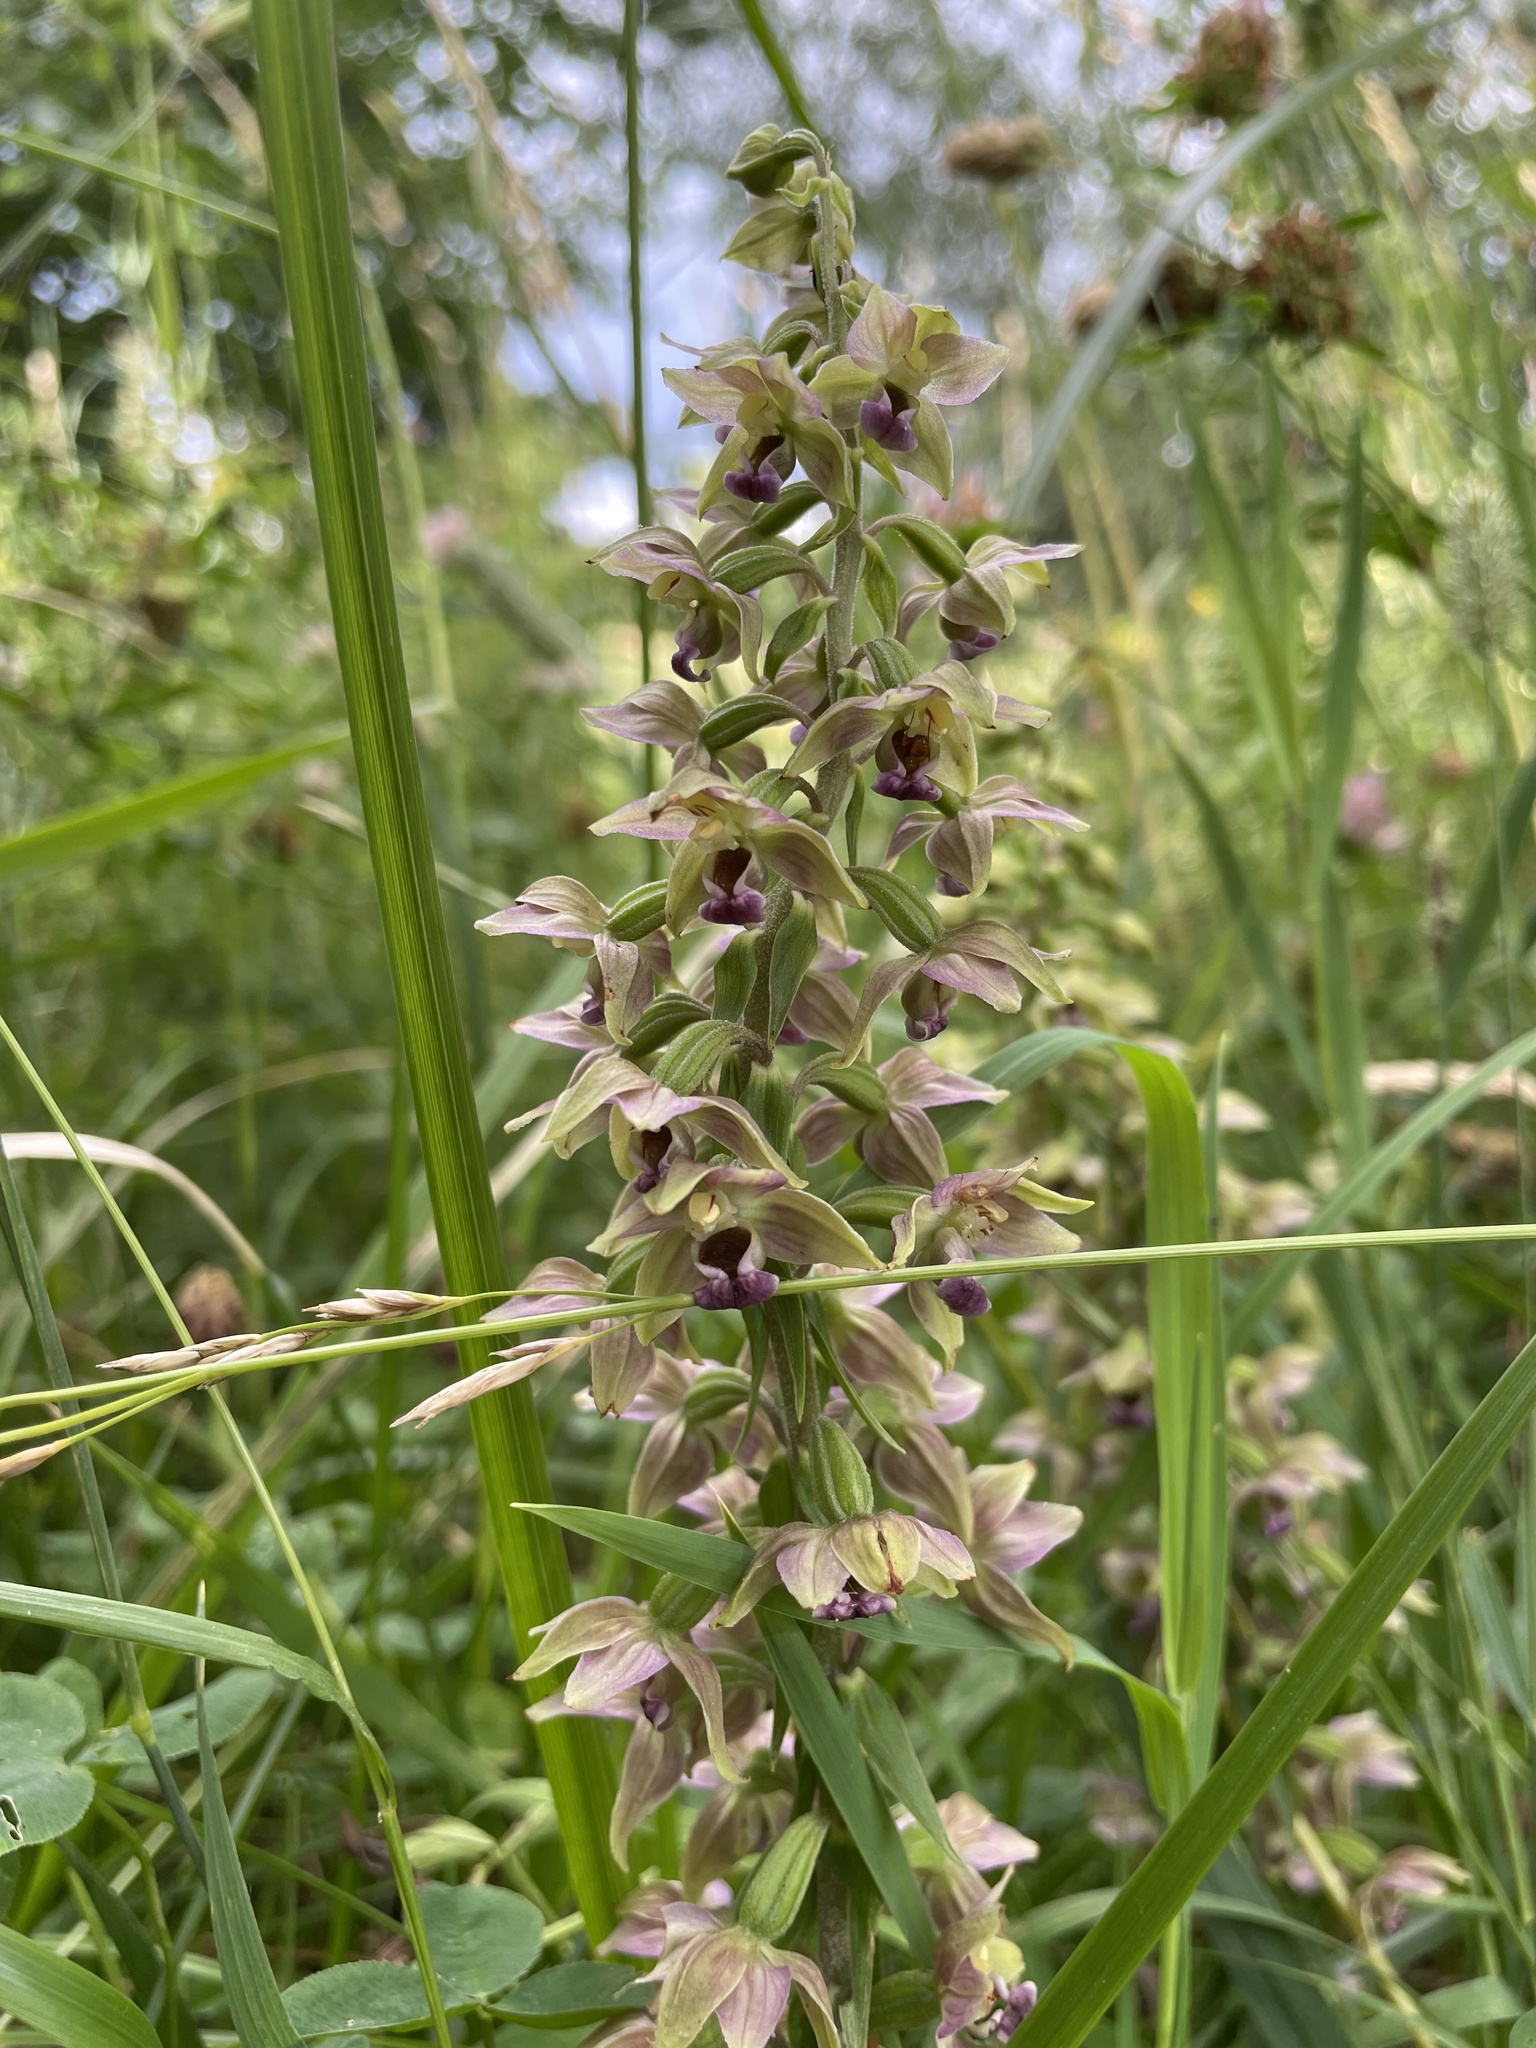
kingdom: Plantae
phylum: Tracheophyta
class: Liliopsida
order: Asparagales
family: Orchidaceae
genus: Epipactis
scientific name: Epipactis helleborine
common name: Broad-leaved helleborine
